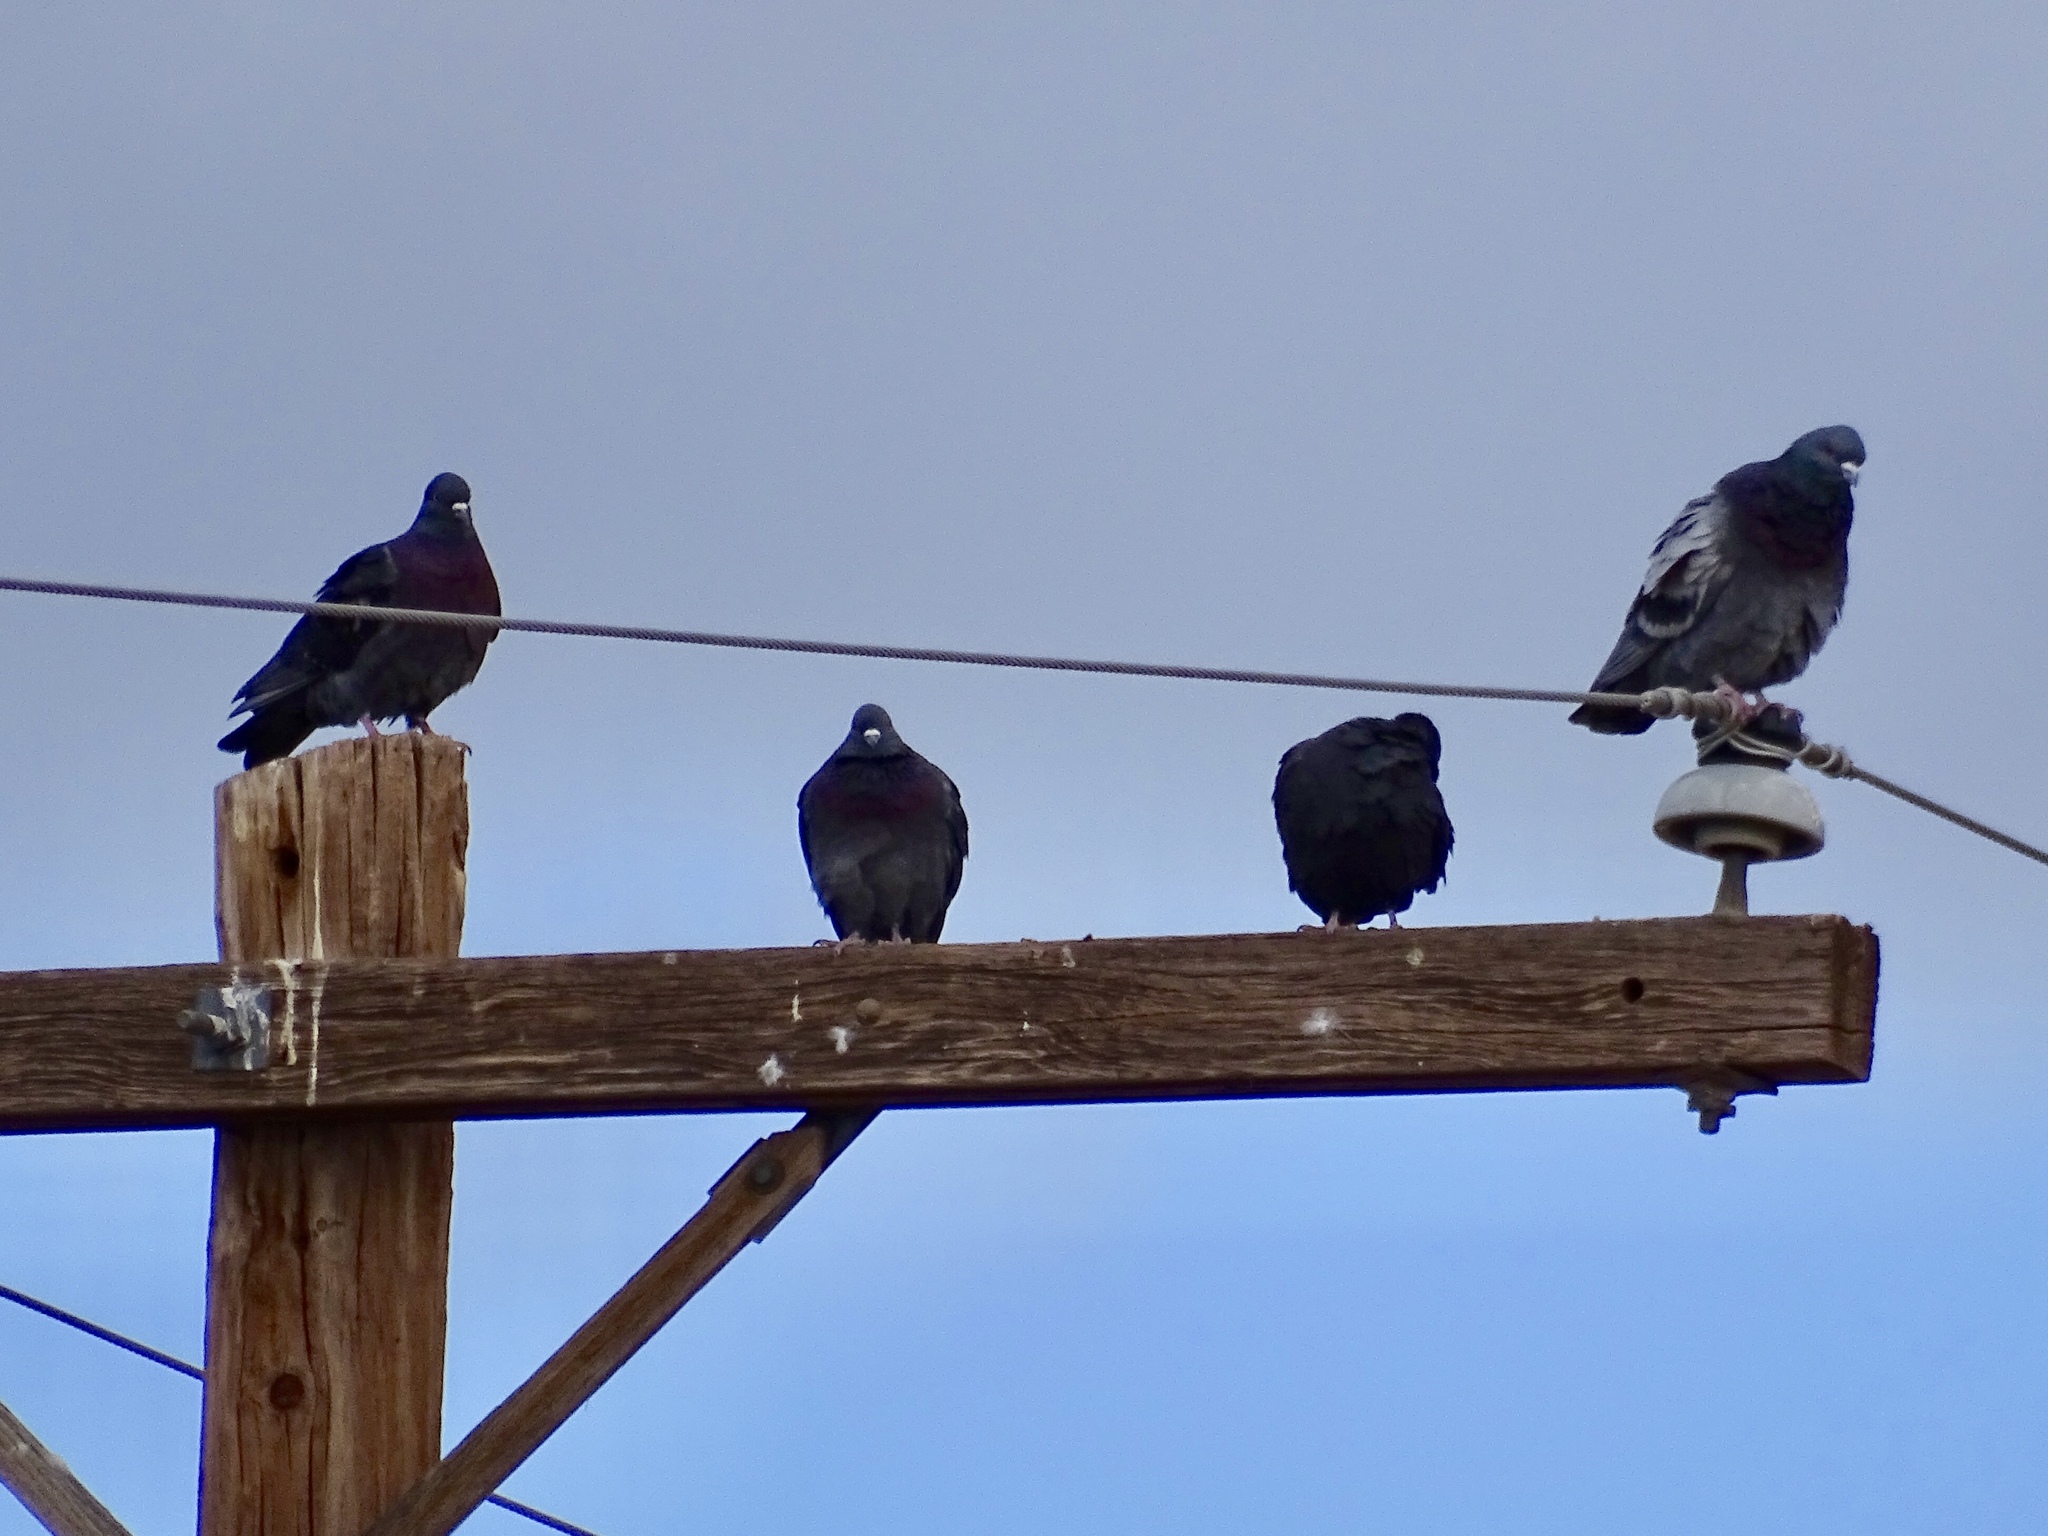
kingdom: Animalia
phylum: Chordata
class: Aves
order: Columbiformes
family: Columbidae
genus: Columba
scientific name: Columba livia
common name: Rock pigeon
